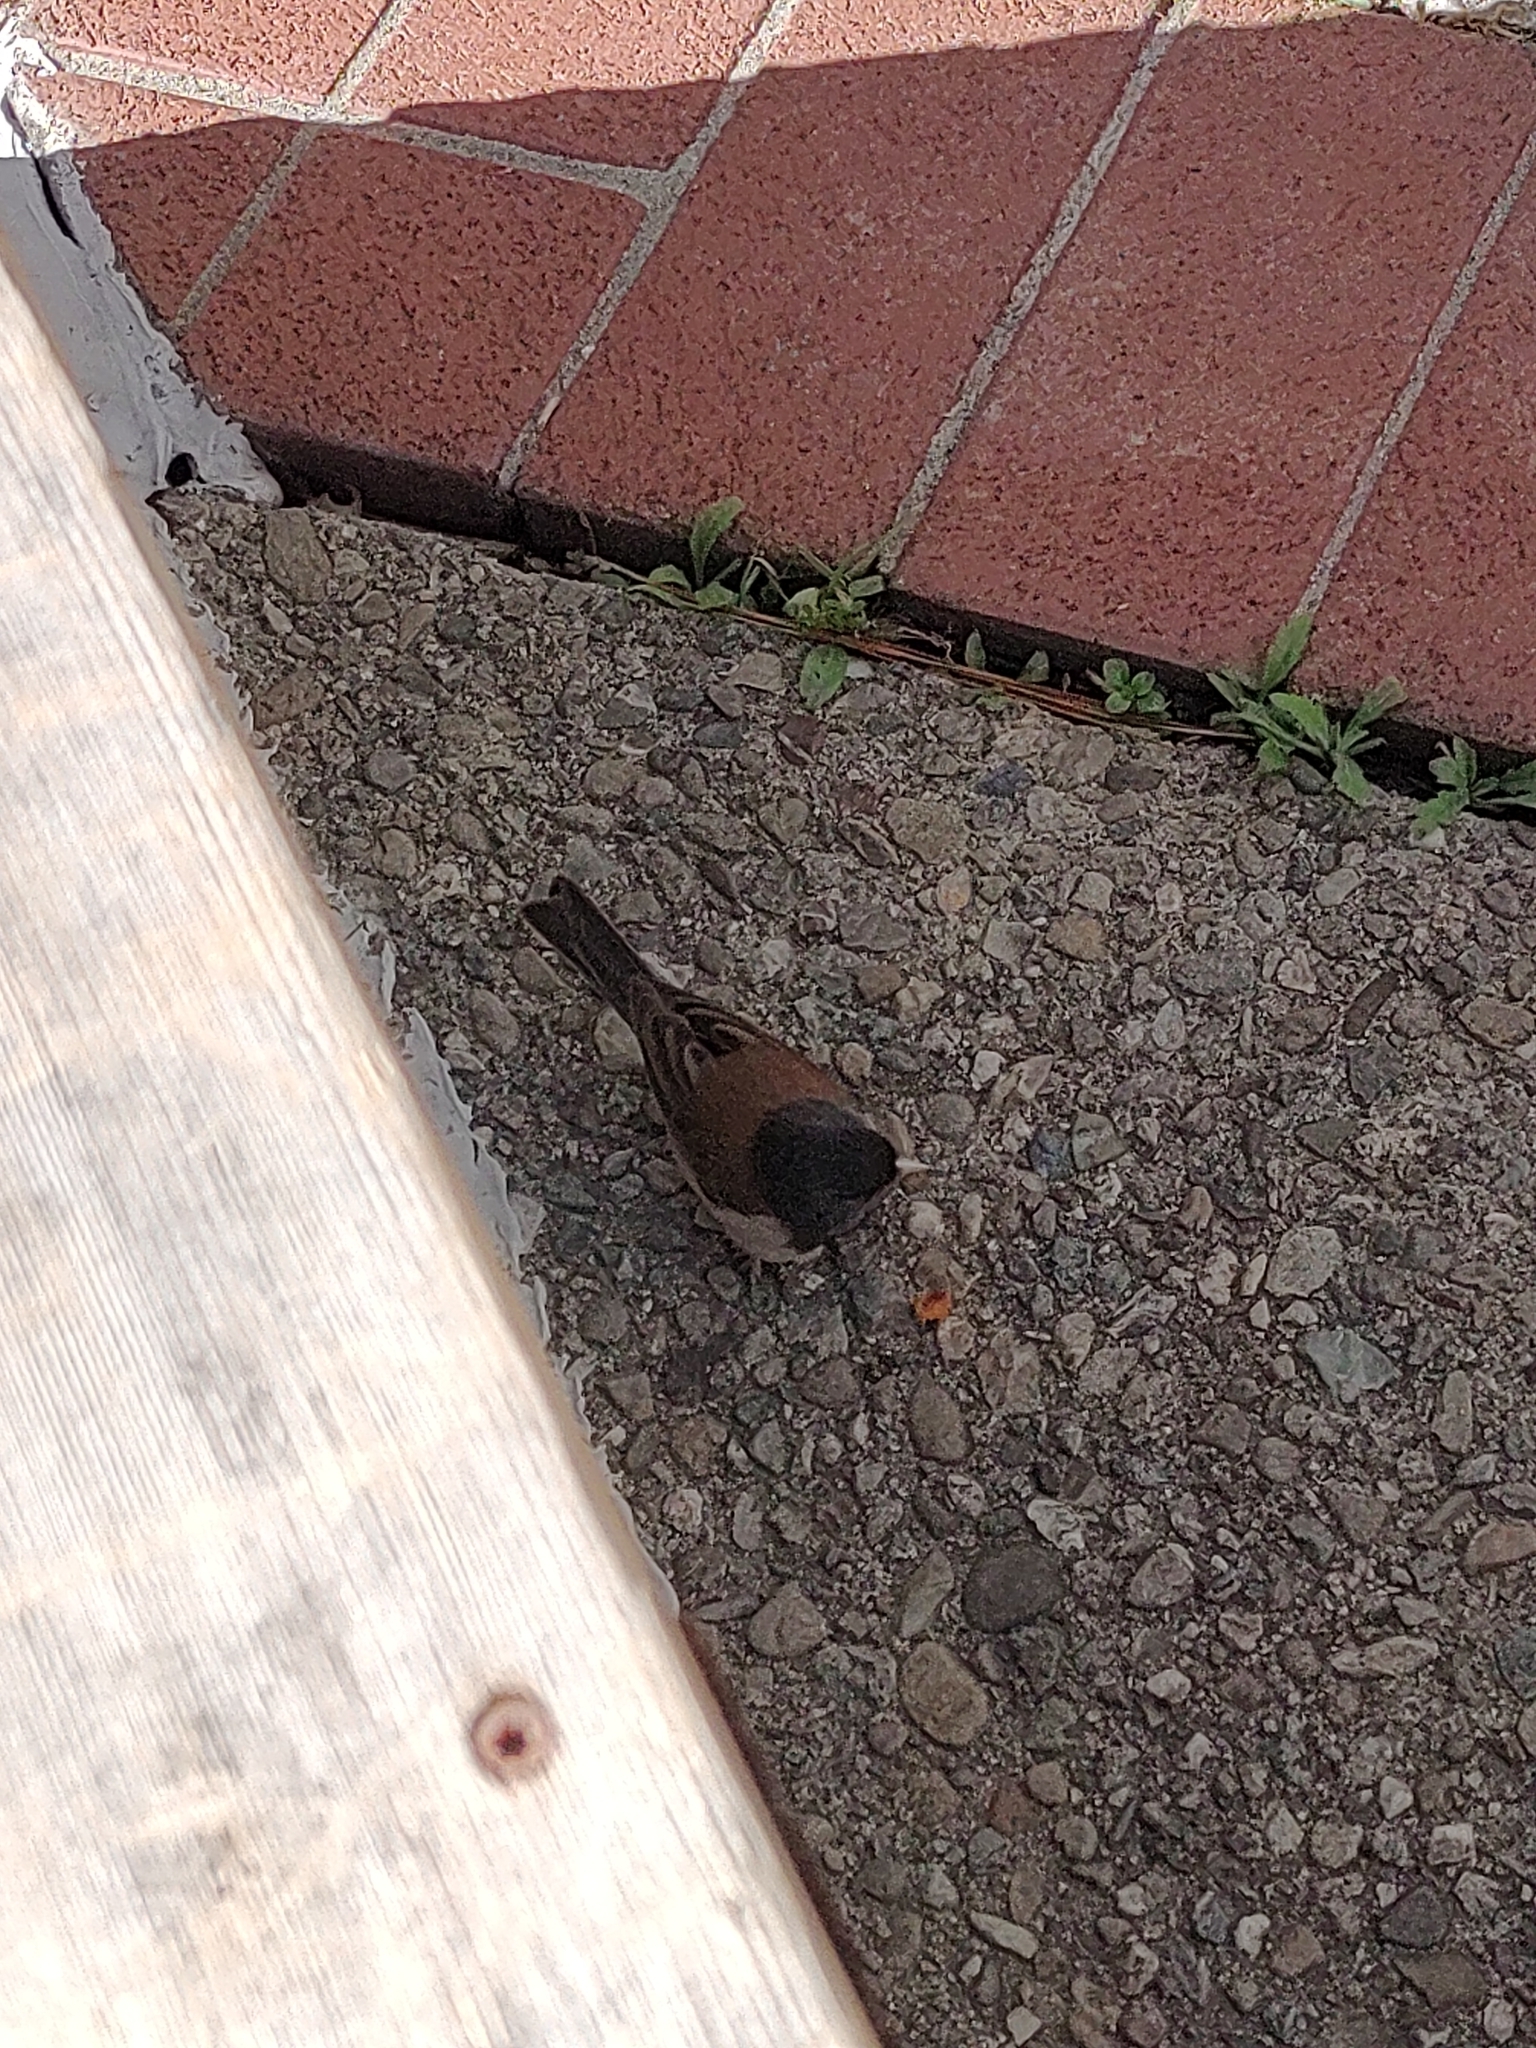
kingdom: Animalia
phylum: Chordata
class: Aves
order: Passeriformes
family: Passerellidae
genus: Junco
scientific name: Junco hyemalis
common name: Dark-eyed junco
